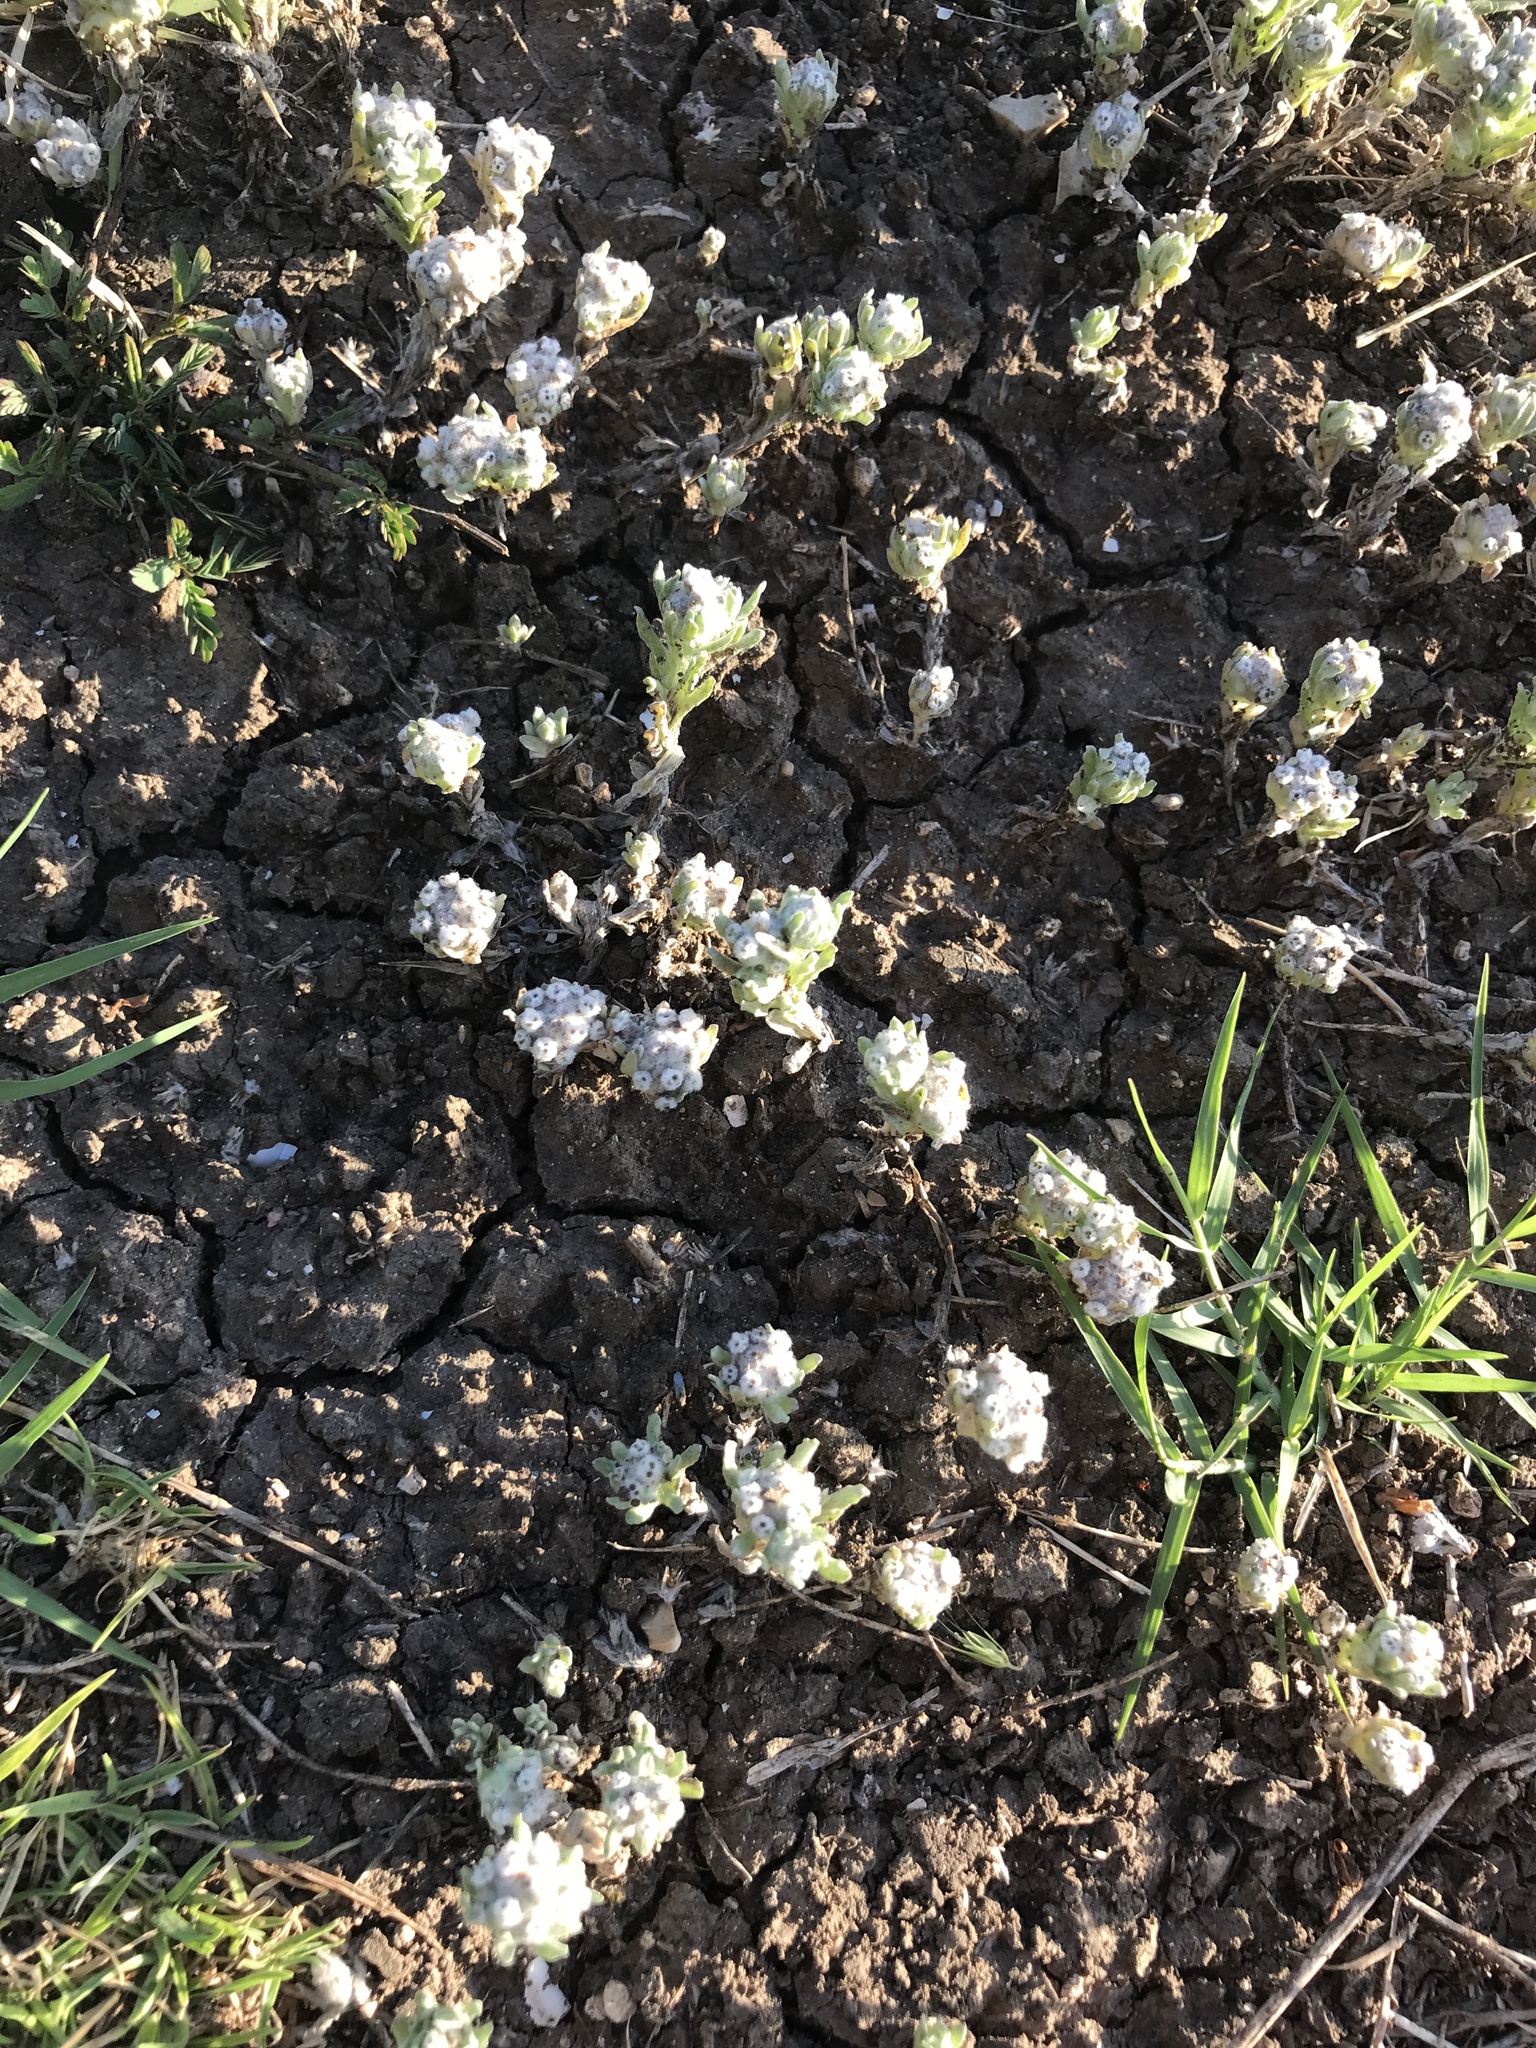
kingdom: Plantae
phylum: Tracheophyta
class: Magnoliopsida
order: Asterales
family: Asteraceae
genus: Diaperia
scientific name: Diaperia verna
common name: Many-stem rabbit-tobacco
